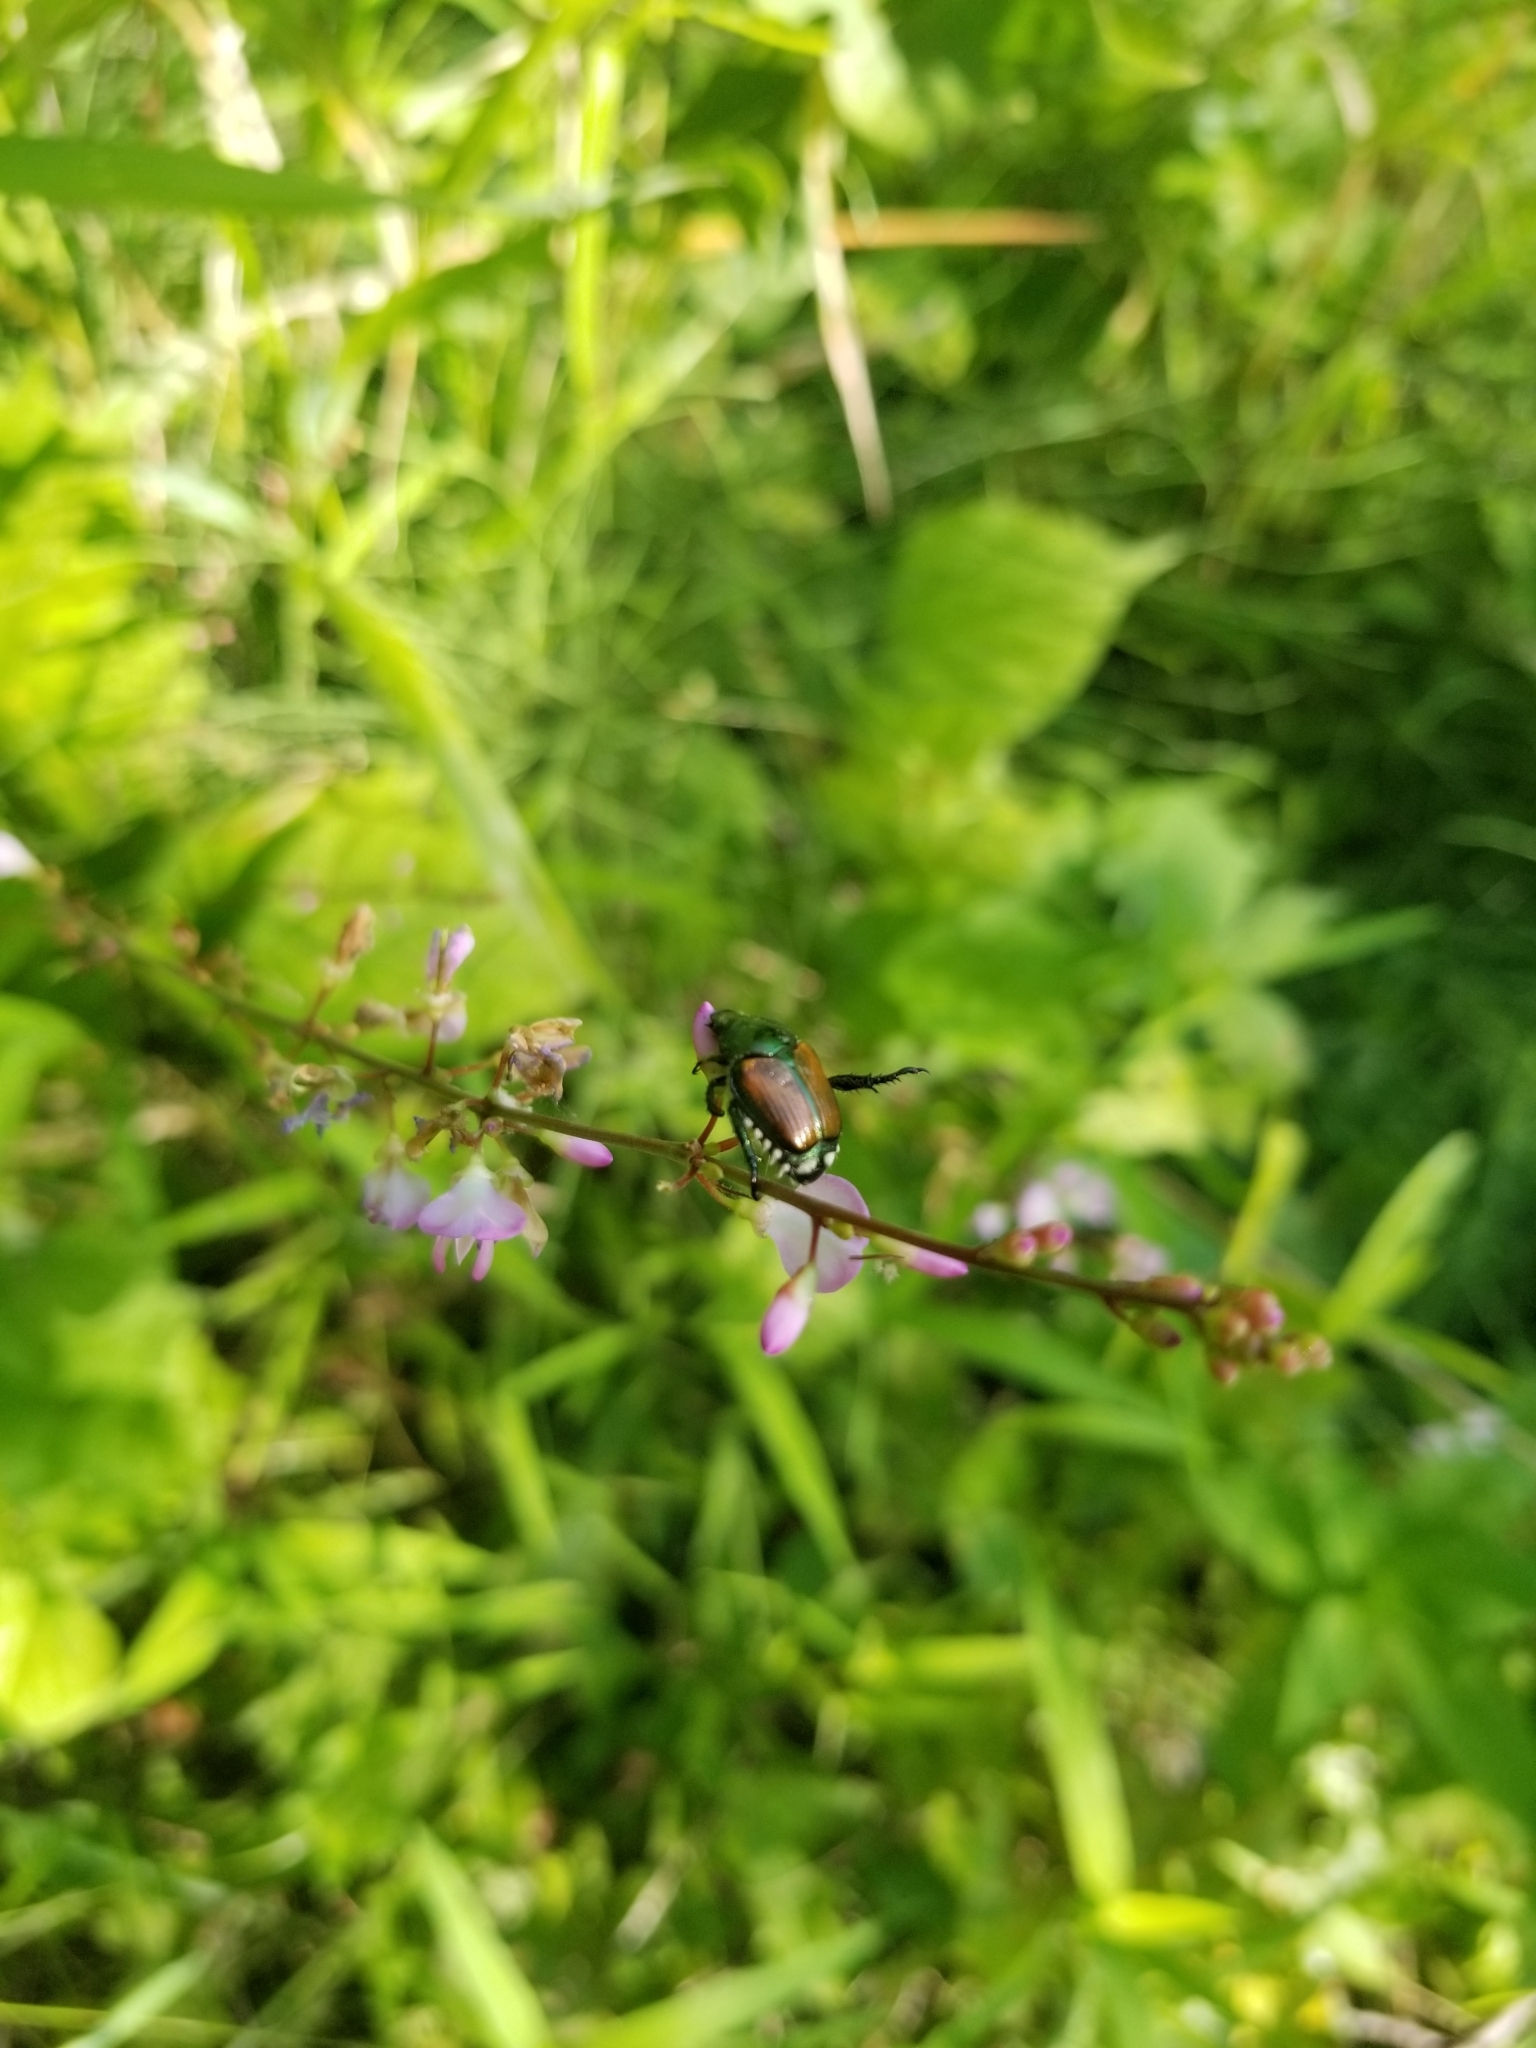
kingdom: Animalia
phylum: Arthropoda
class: Insecta
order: Coleoptera
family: Scarabaeidae
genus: Popillia
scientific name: Popillia japonica
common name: Japanese beetle
